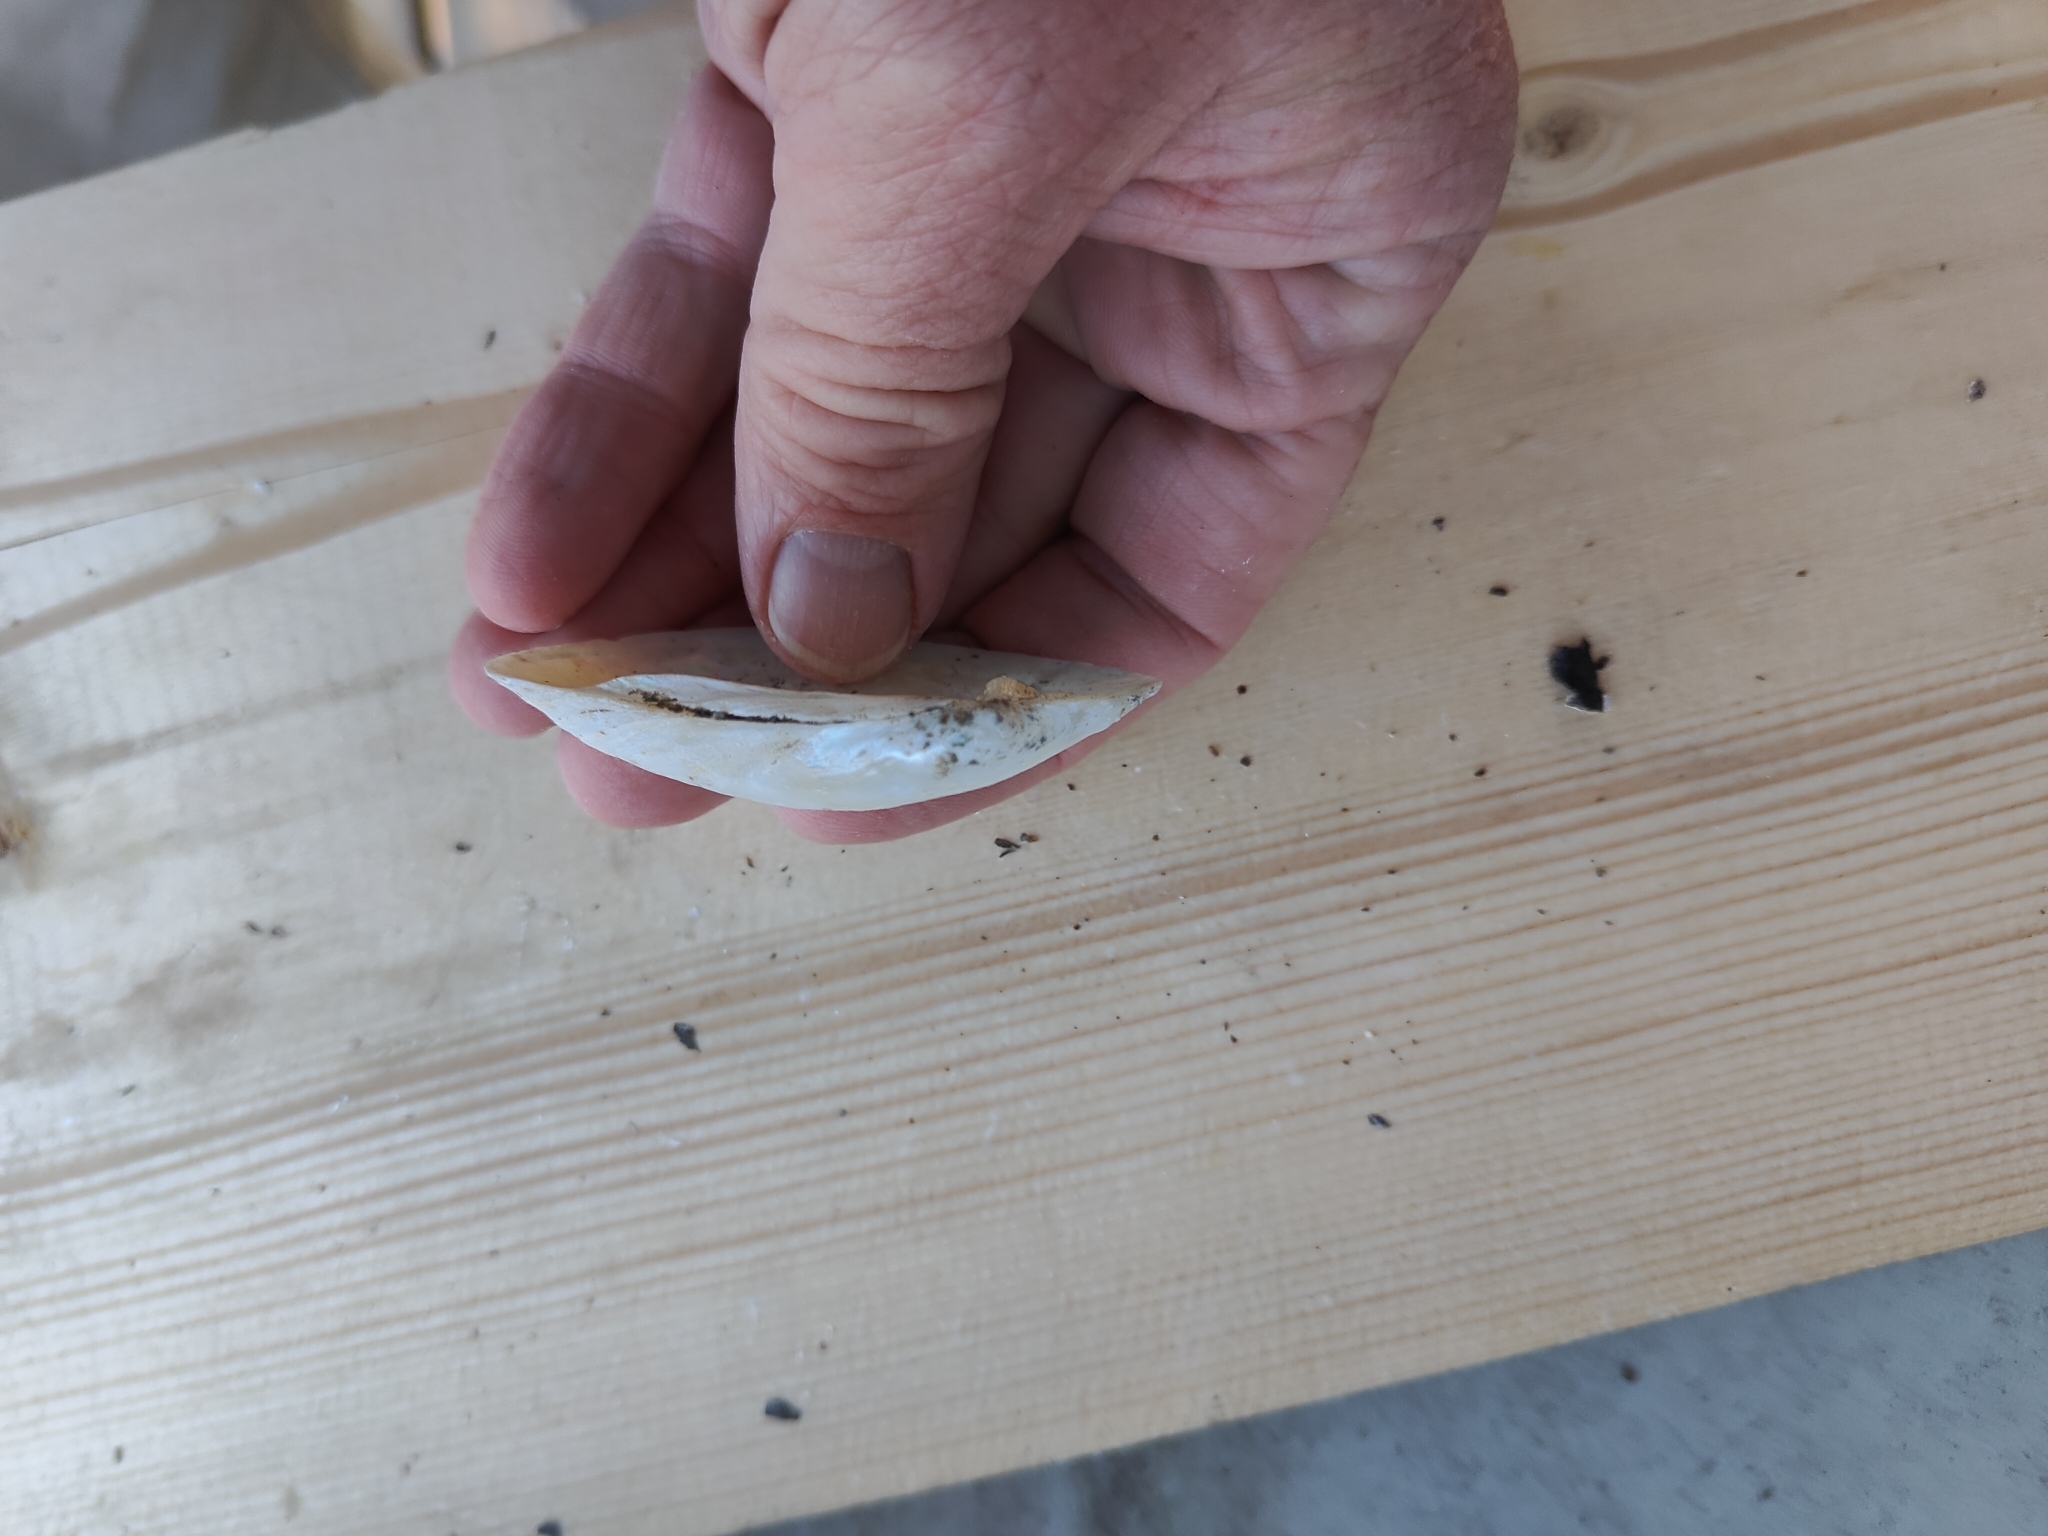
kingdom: Animalia
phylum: Mollusca
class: Bivalvia
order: Unionida
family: Unionidae
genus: Lampsilis
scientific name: Lampsilis siliquoidea
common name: Fatmucket
